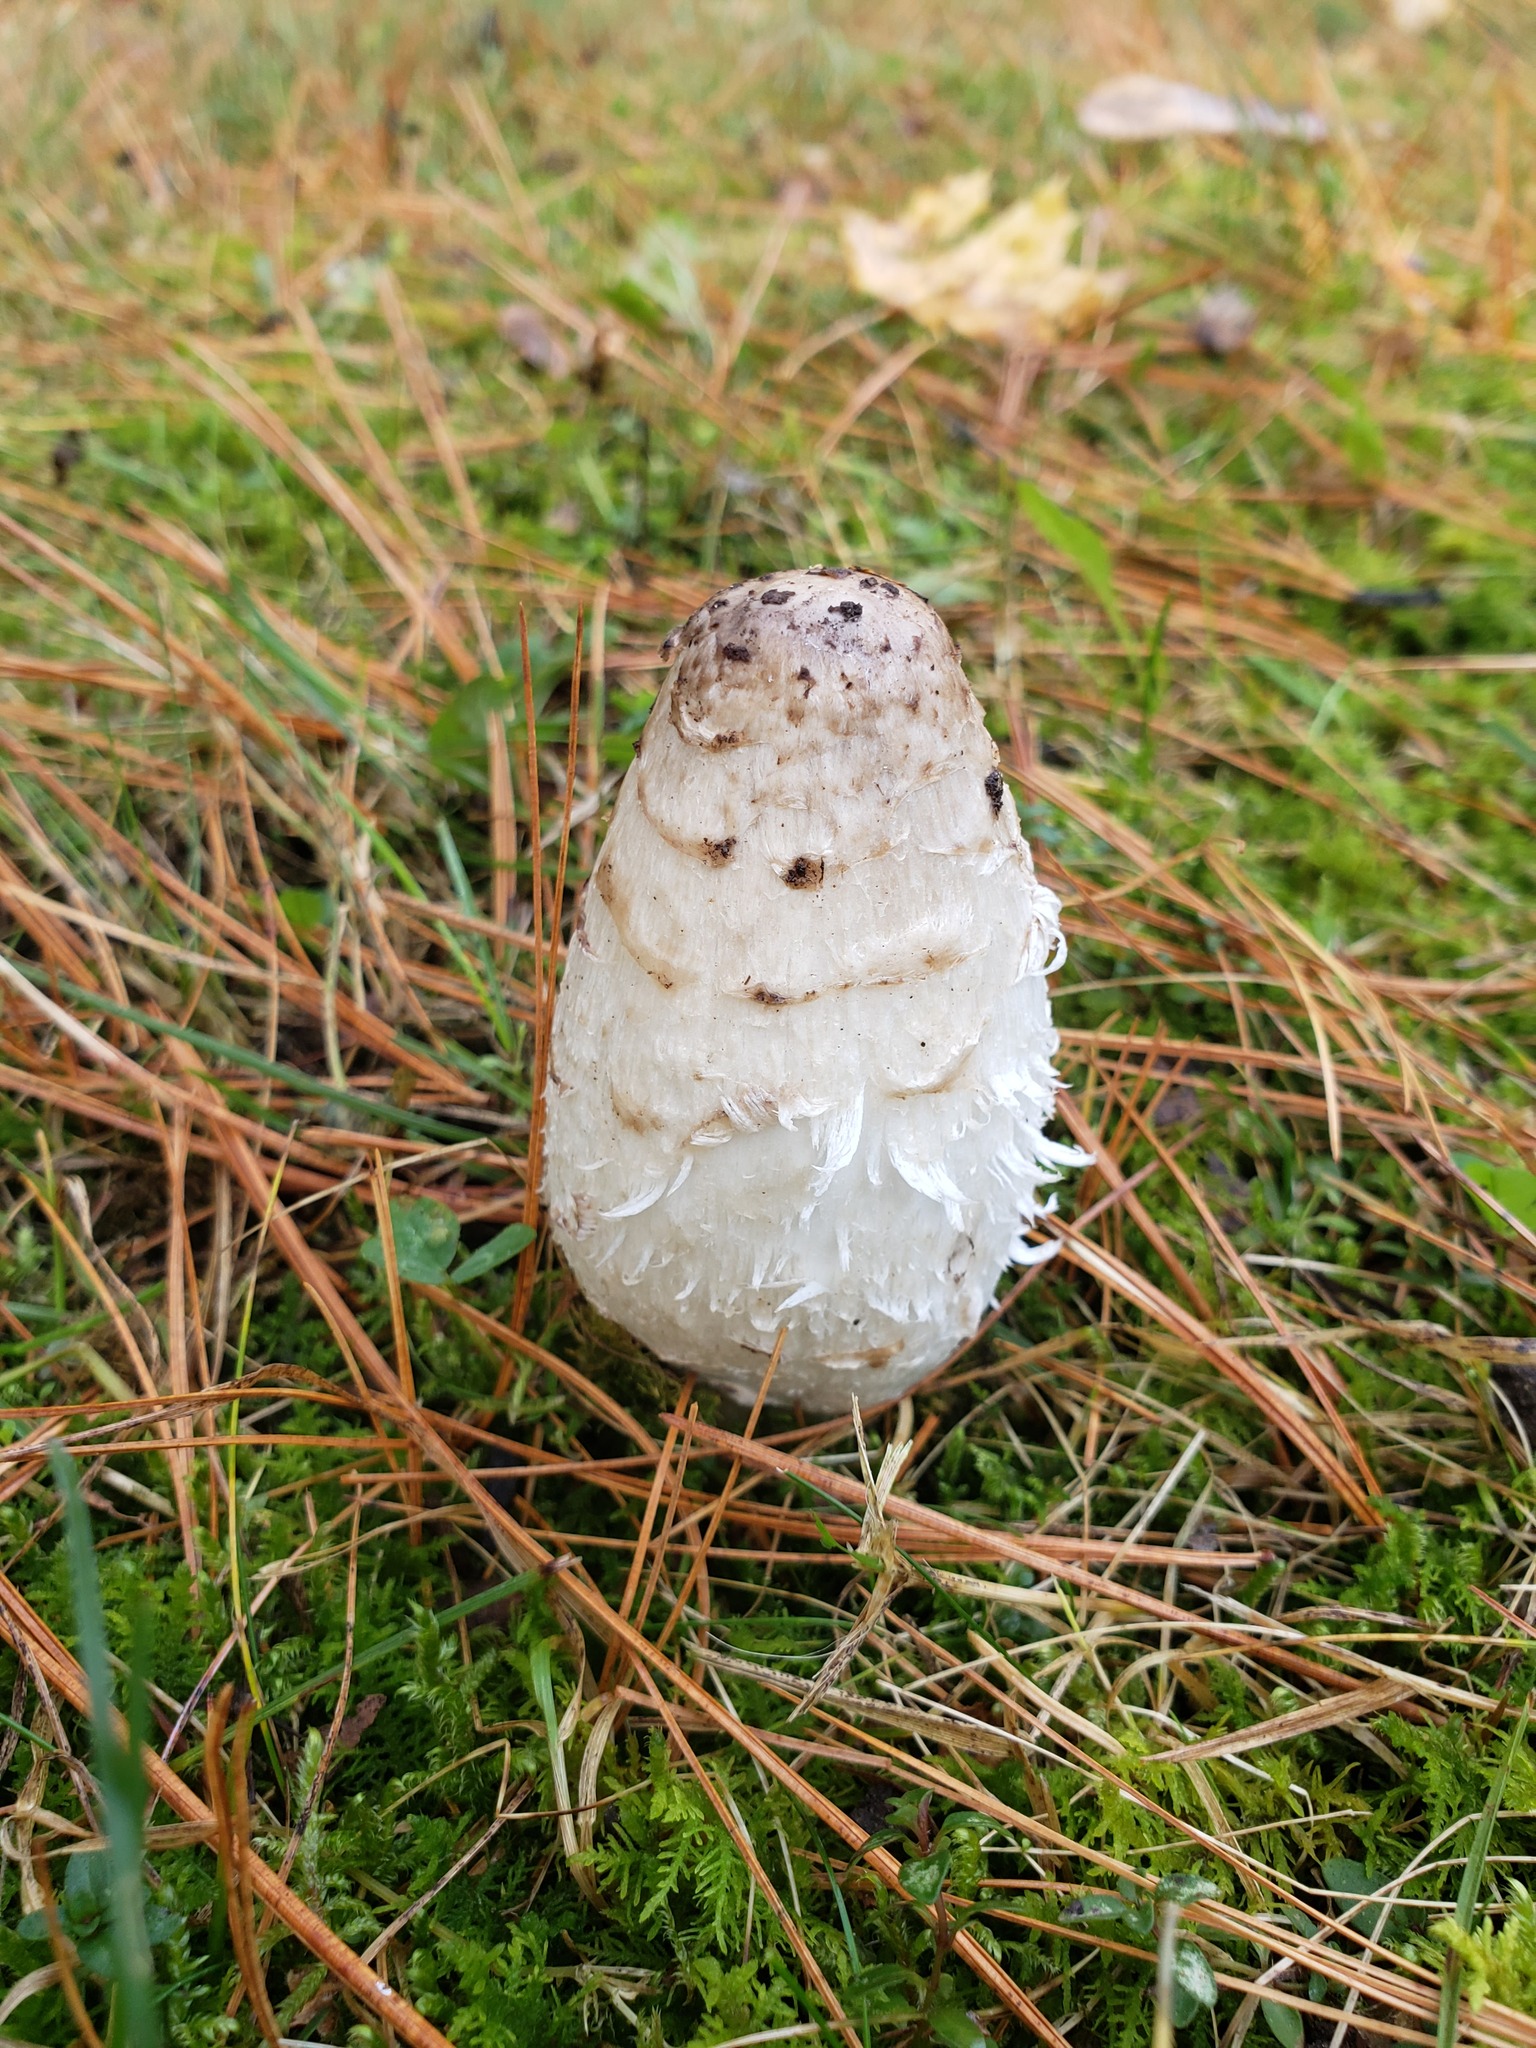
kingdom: Fungi
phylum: Basidiomycota
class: Agaricomycetes
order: Agaricales
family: Agaricaceae
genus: Coprinus
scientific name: Coprinus comatus
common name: Lawyer's wig
